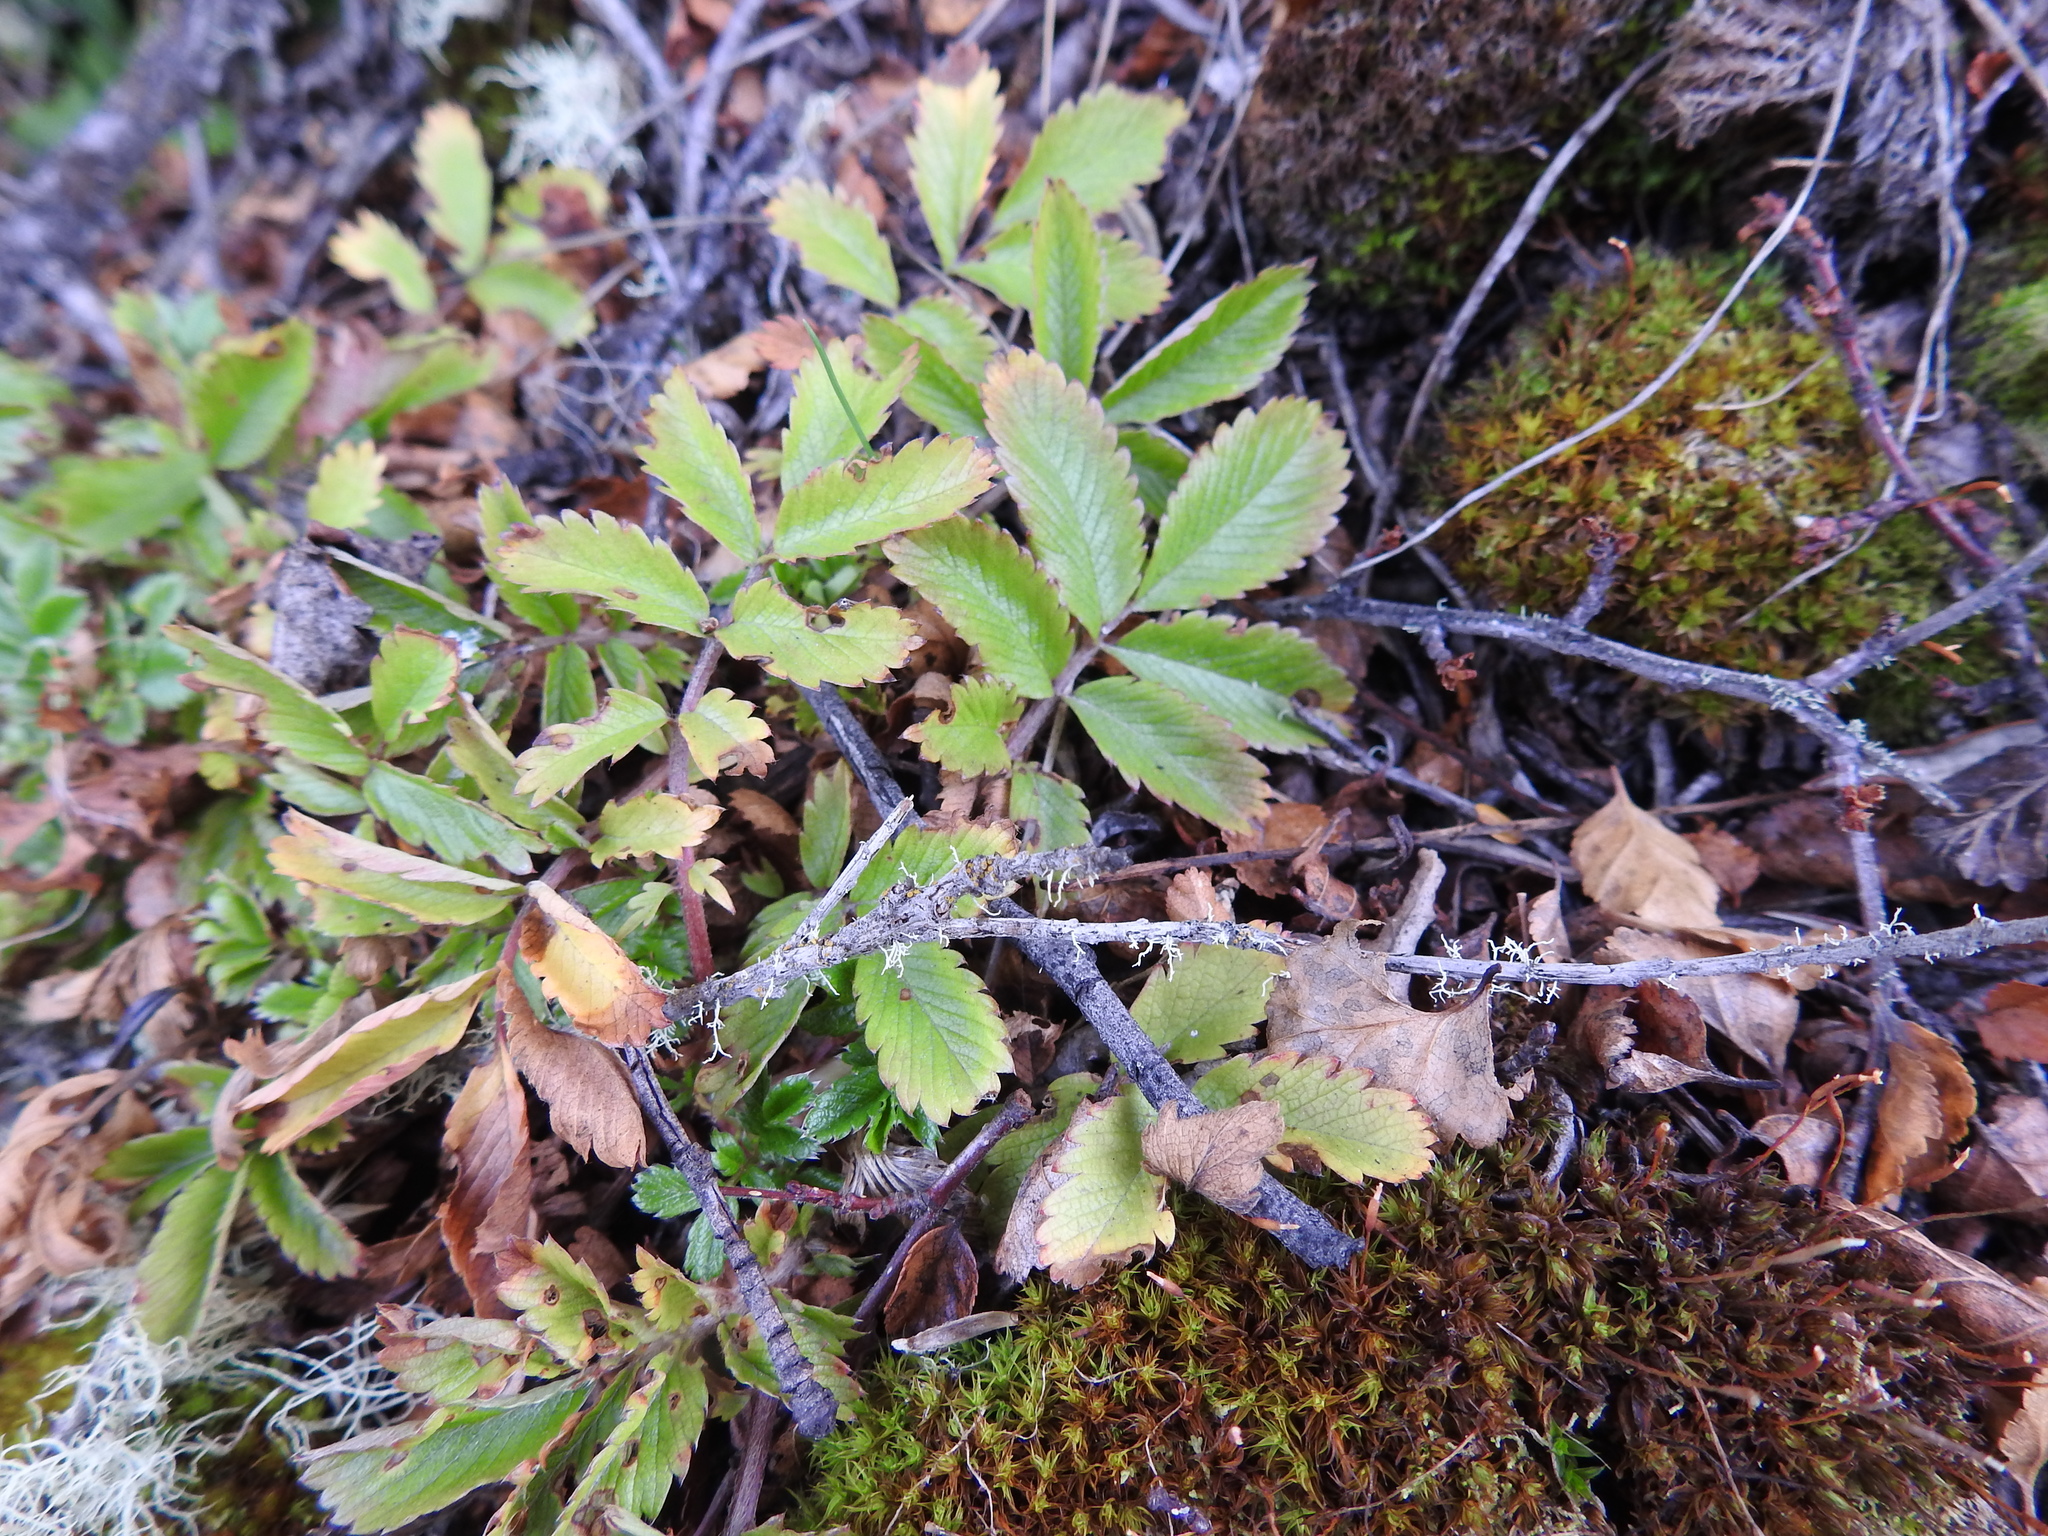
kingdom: Plantae
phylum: Tracheophyta
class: Magnoliopsida
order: Rosales
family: Rosaceae
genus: Acaena
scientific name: Acaena ovalifolia
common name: Two-spined acaena
